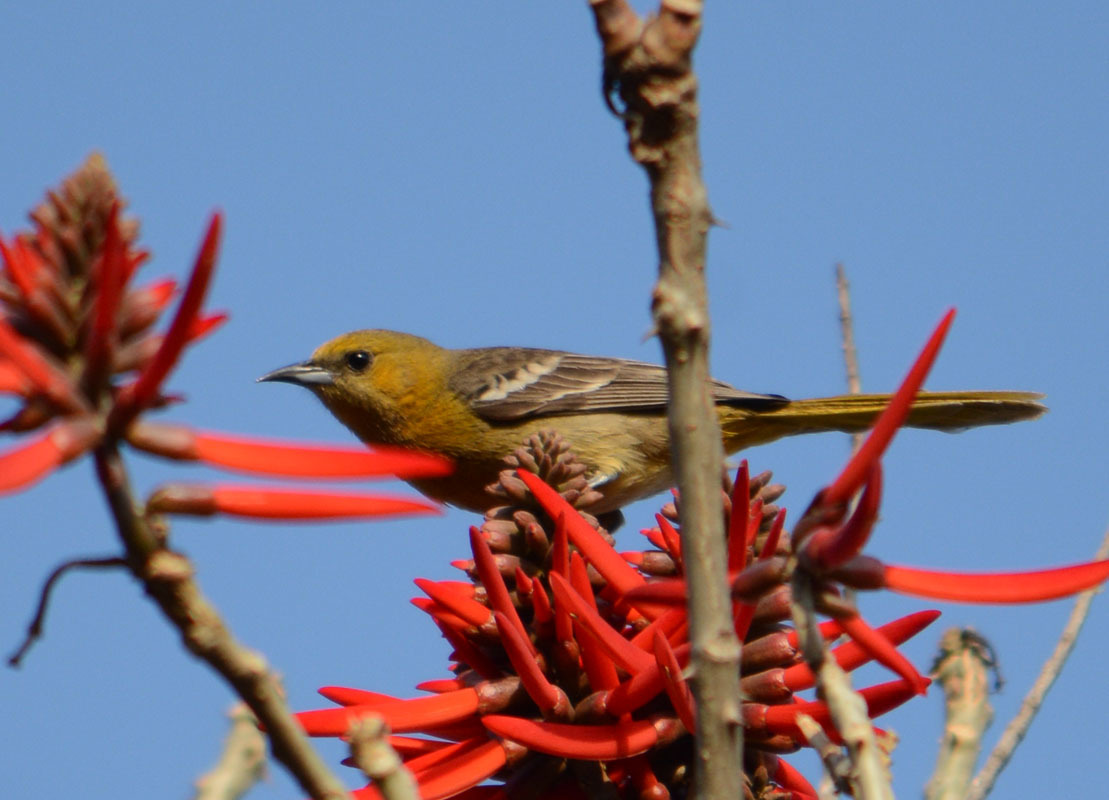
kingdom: Animalia
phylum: Chordata
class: Aves
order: Passeriformes
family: Icteridae
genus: Icterus
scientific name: Icterus cucullatus
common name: Hooded oriole
